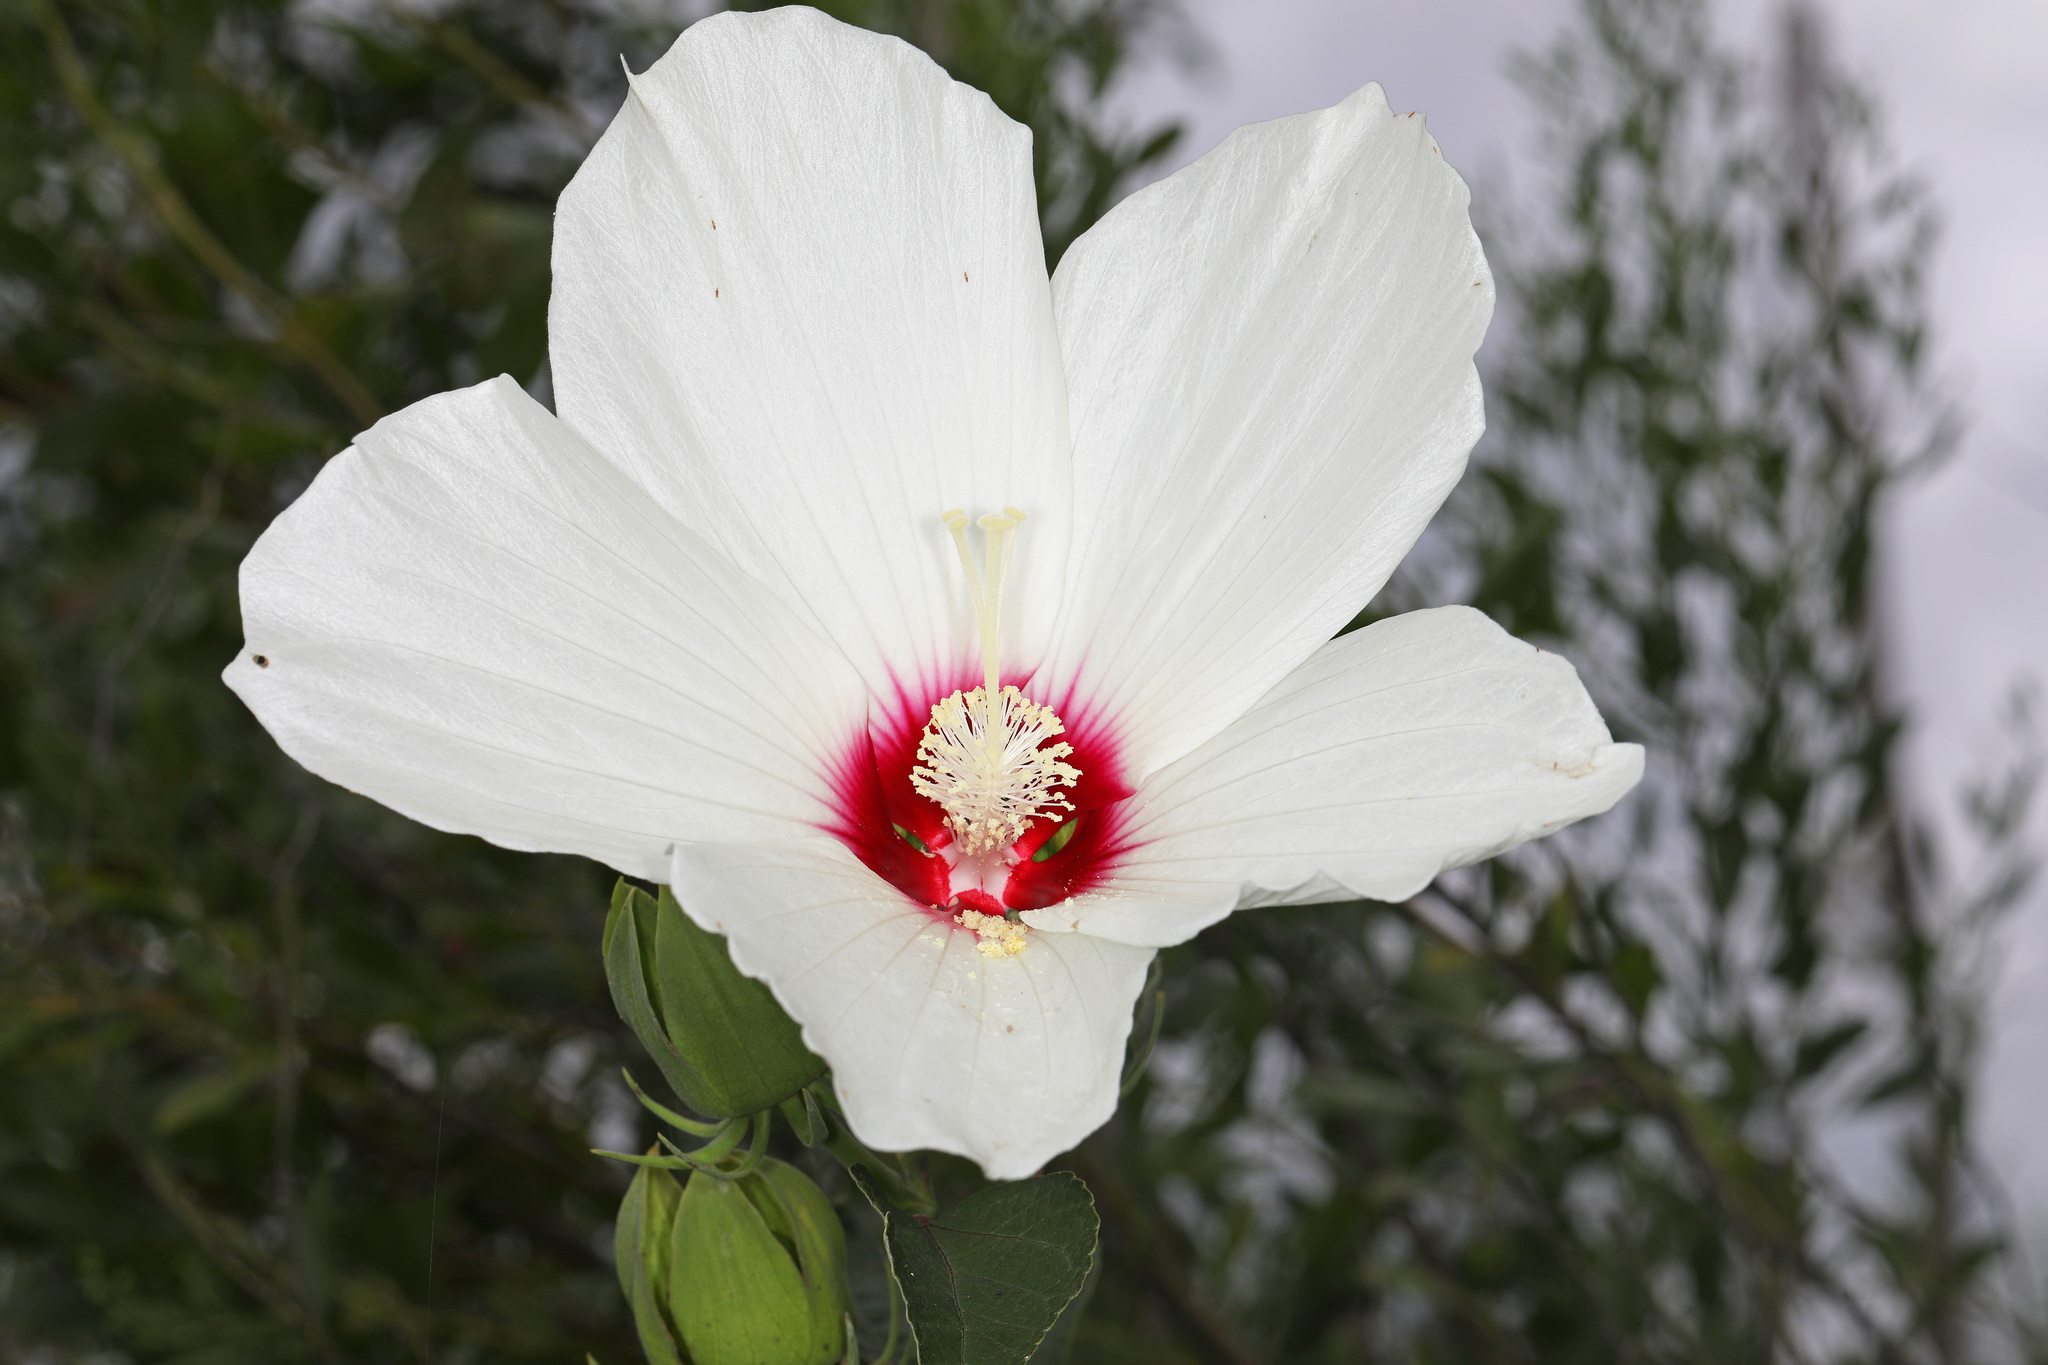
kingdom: Plantae
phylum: Tracheophyta
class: Magnoliopsida
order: Malvales
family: Malvaceae
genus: Hibiscus
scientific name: Hibiscus moscheutos
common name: Common rose-mallow
